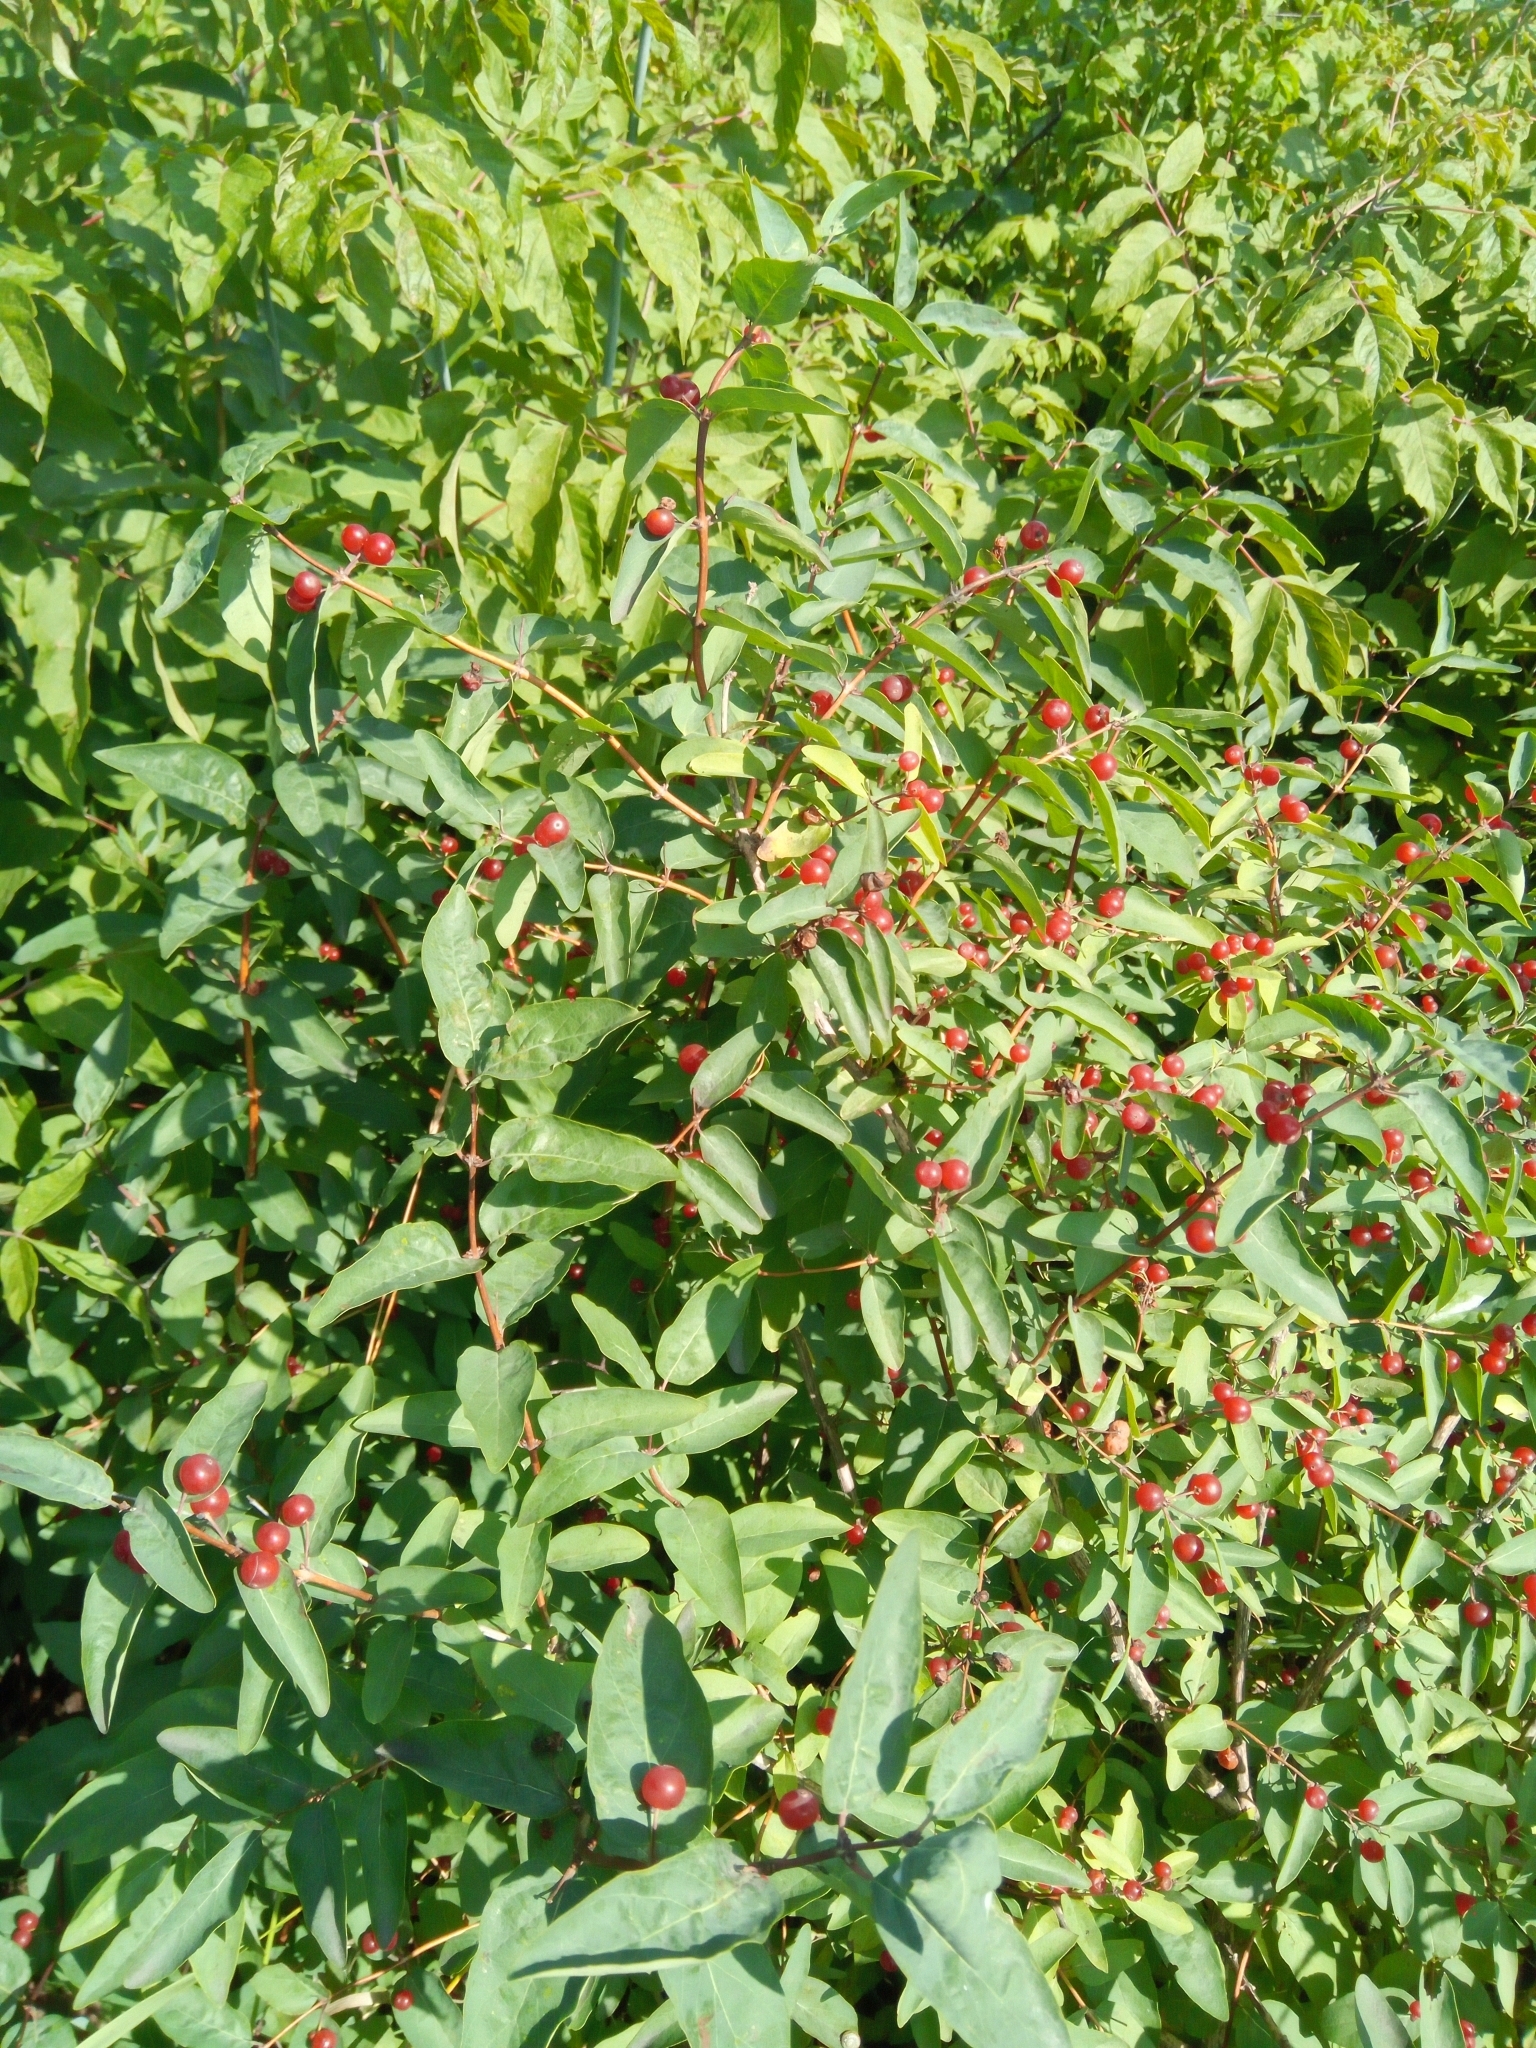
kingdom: Plantae
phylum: Tracheophyta
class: Magnoliopsida
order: Dipsacales
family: Caprifoliaceae
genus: Lonicera
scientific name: Lonicera tatarica
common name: Tatarian honeysuckle
